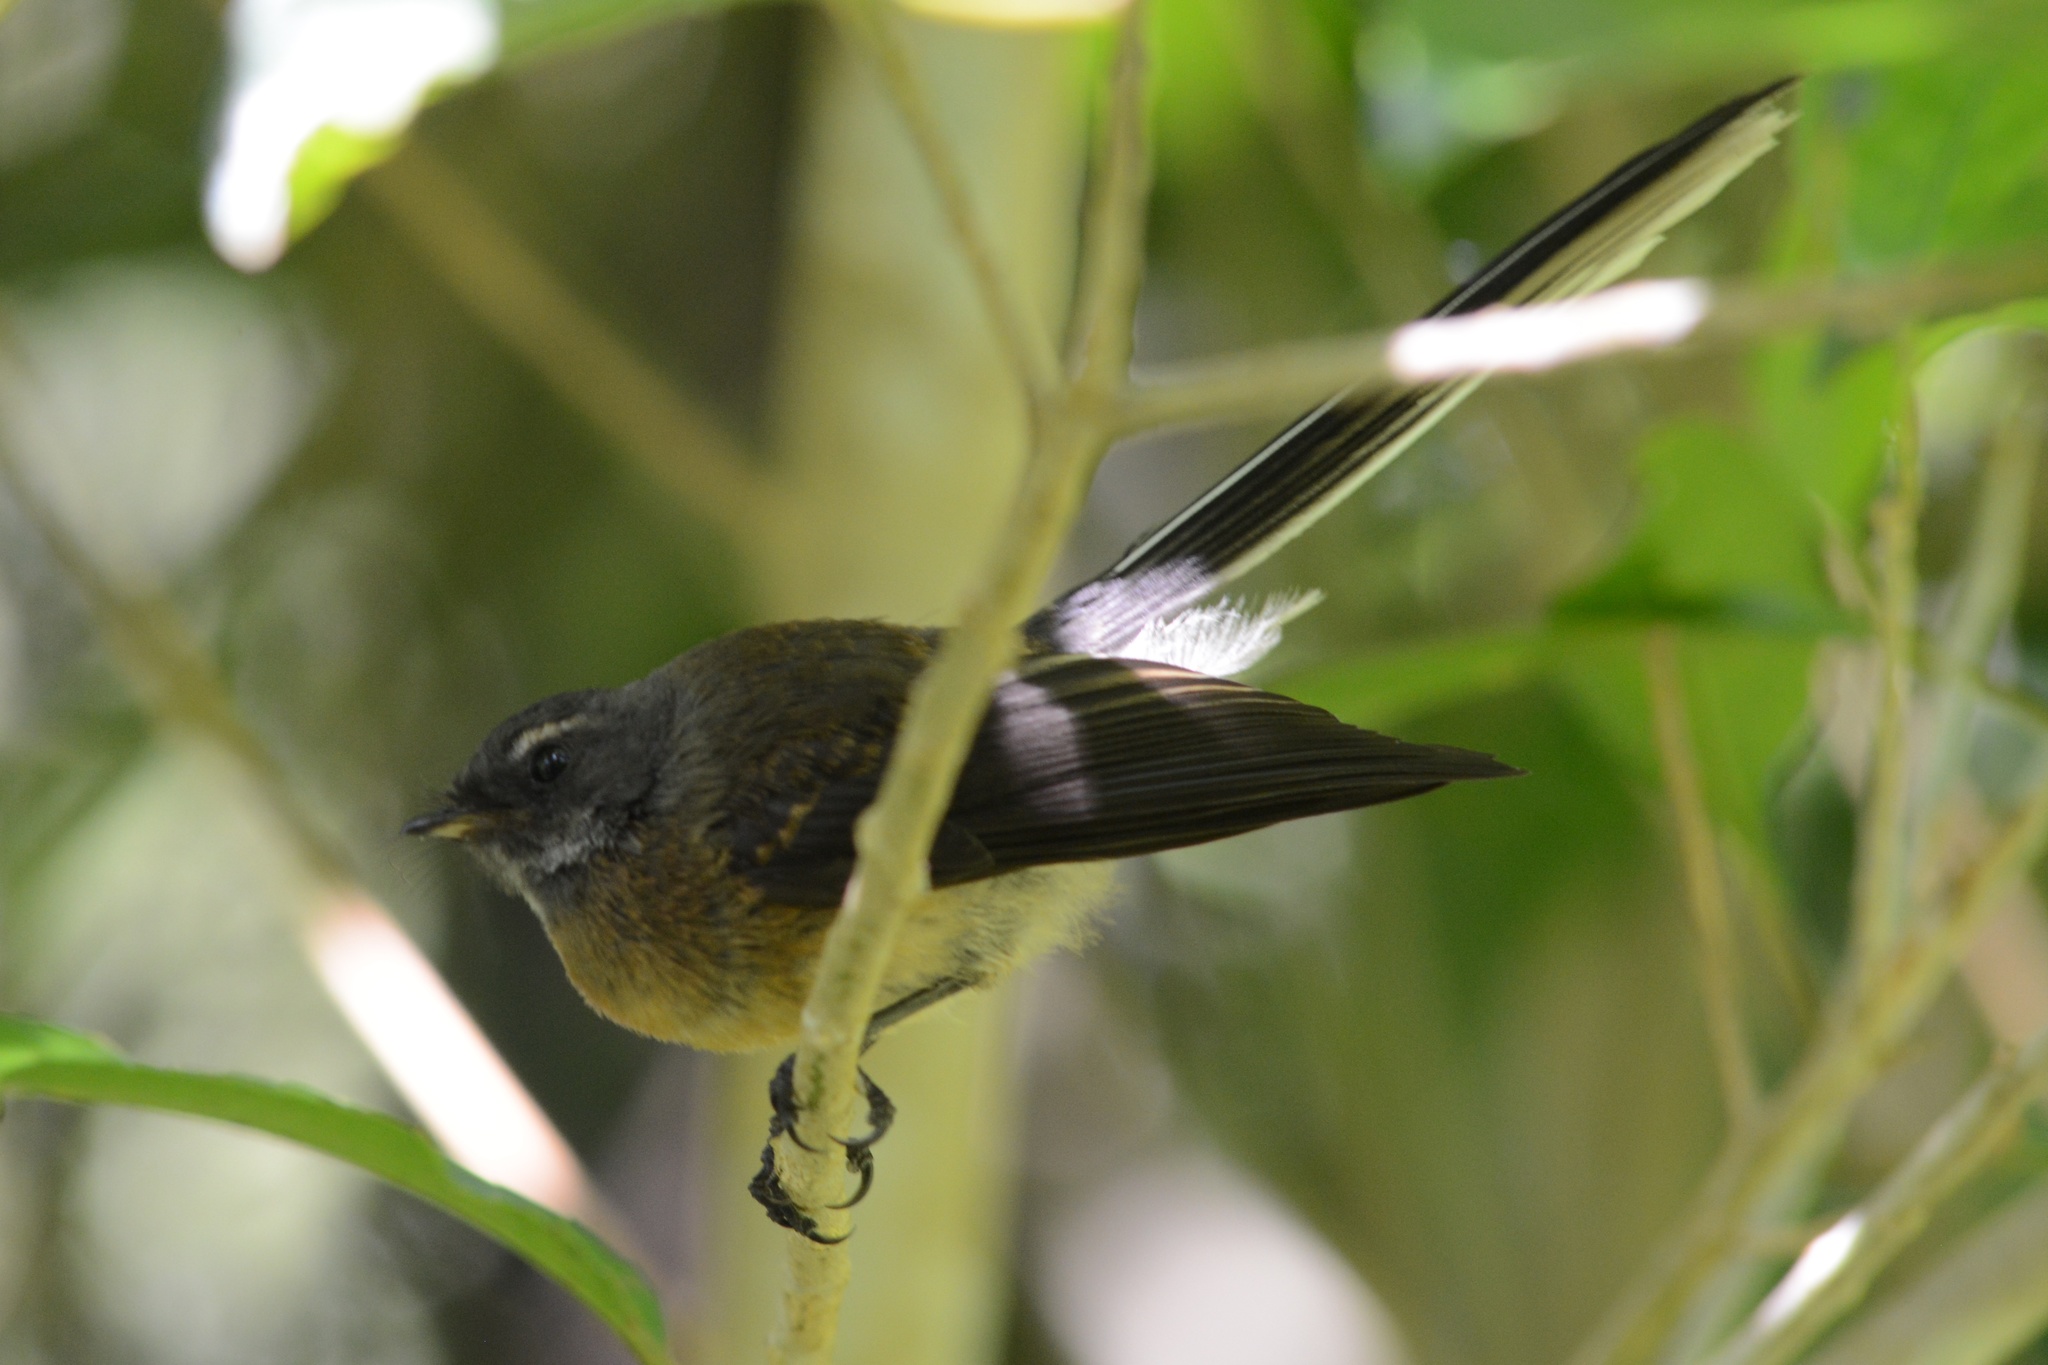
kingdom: Animalia
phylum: Chordata
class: Aves
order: Passeriformes
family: Rhipiduridae
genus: Rhipidura
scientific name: Rhipidura fuliginosa
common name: New zealand fantail
